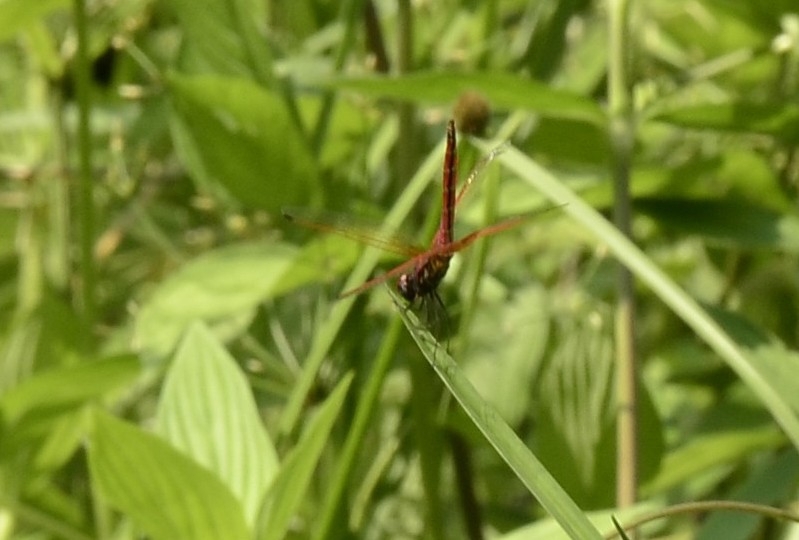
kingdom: Animalia
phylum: Arthropoda
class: Insecta
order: Odonata
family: Libellulidae
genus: Trithemis
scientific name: Trithemis aurora
